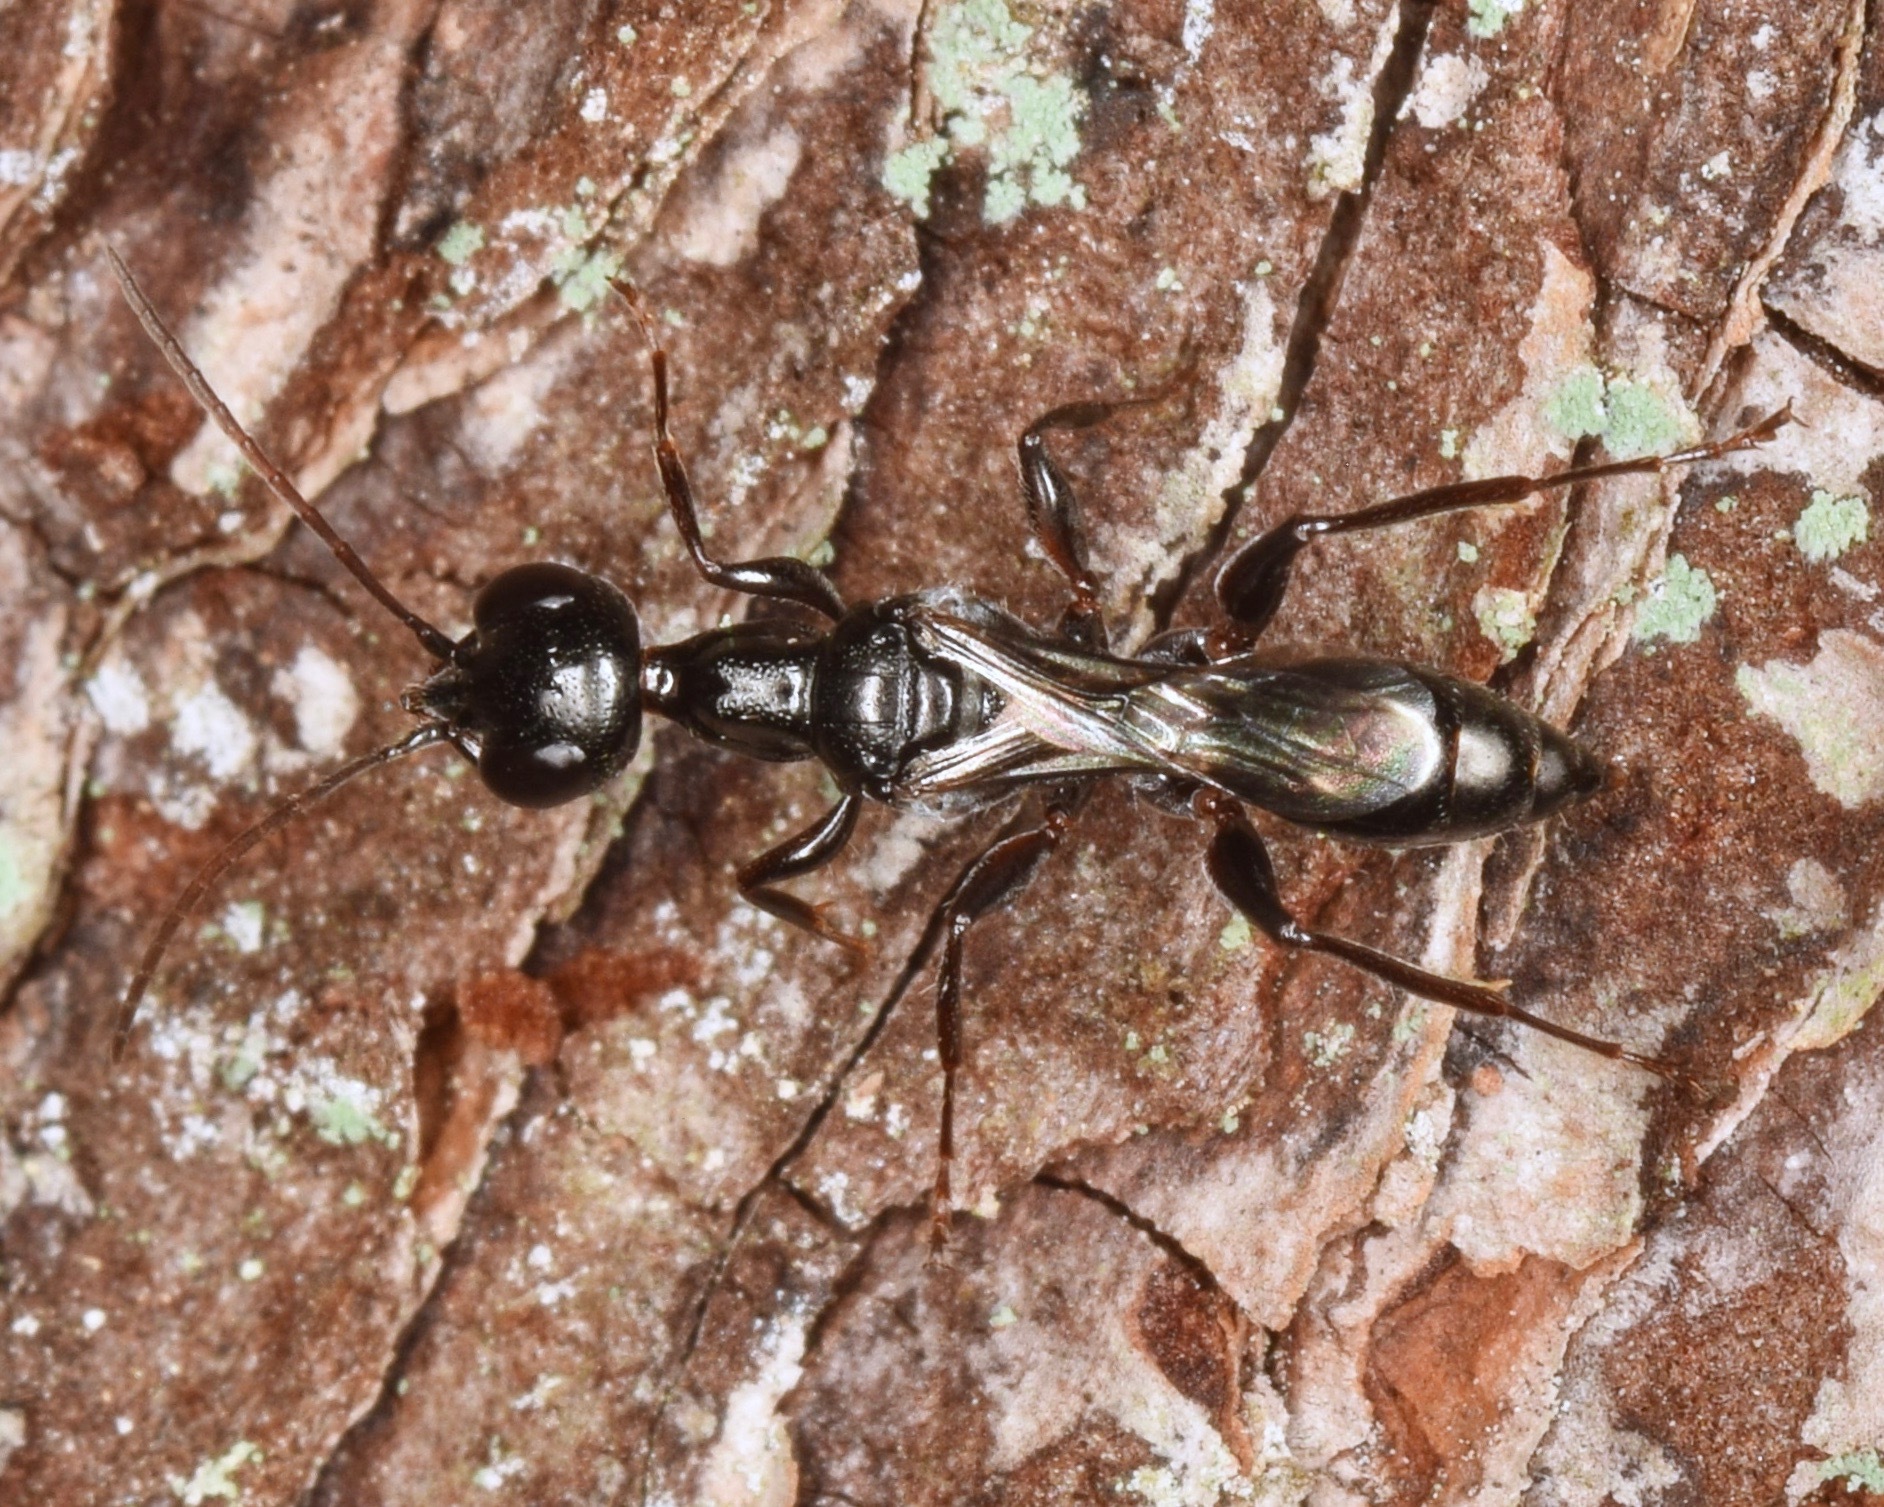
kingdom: Animalia
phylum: Arthropoda
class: Insecta
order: Hymenoptera
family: Ampulicidae
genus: Ampulex
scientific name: Ampulex canaliculata
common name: Cockroach wasp
